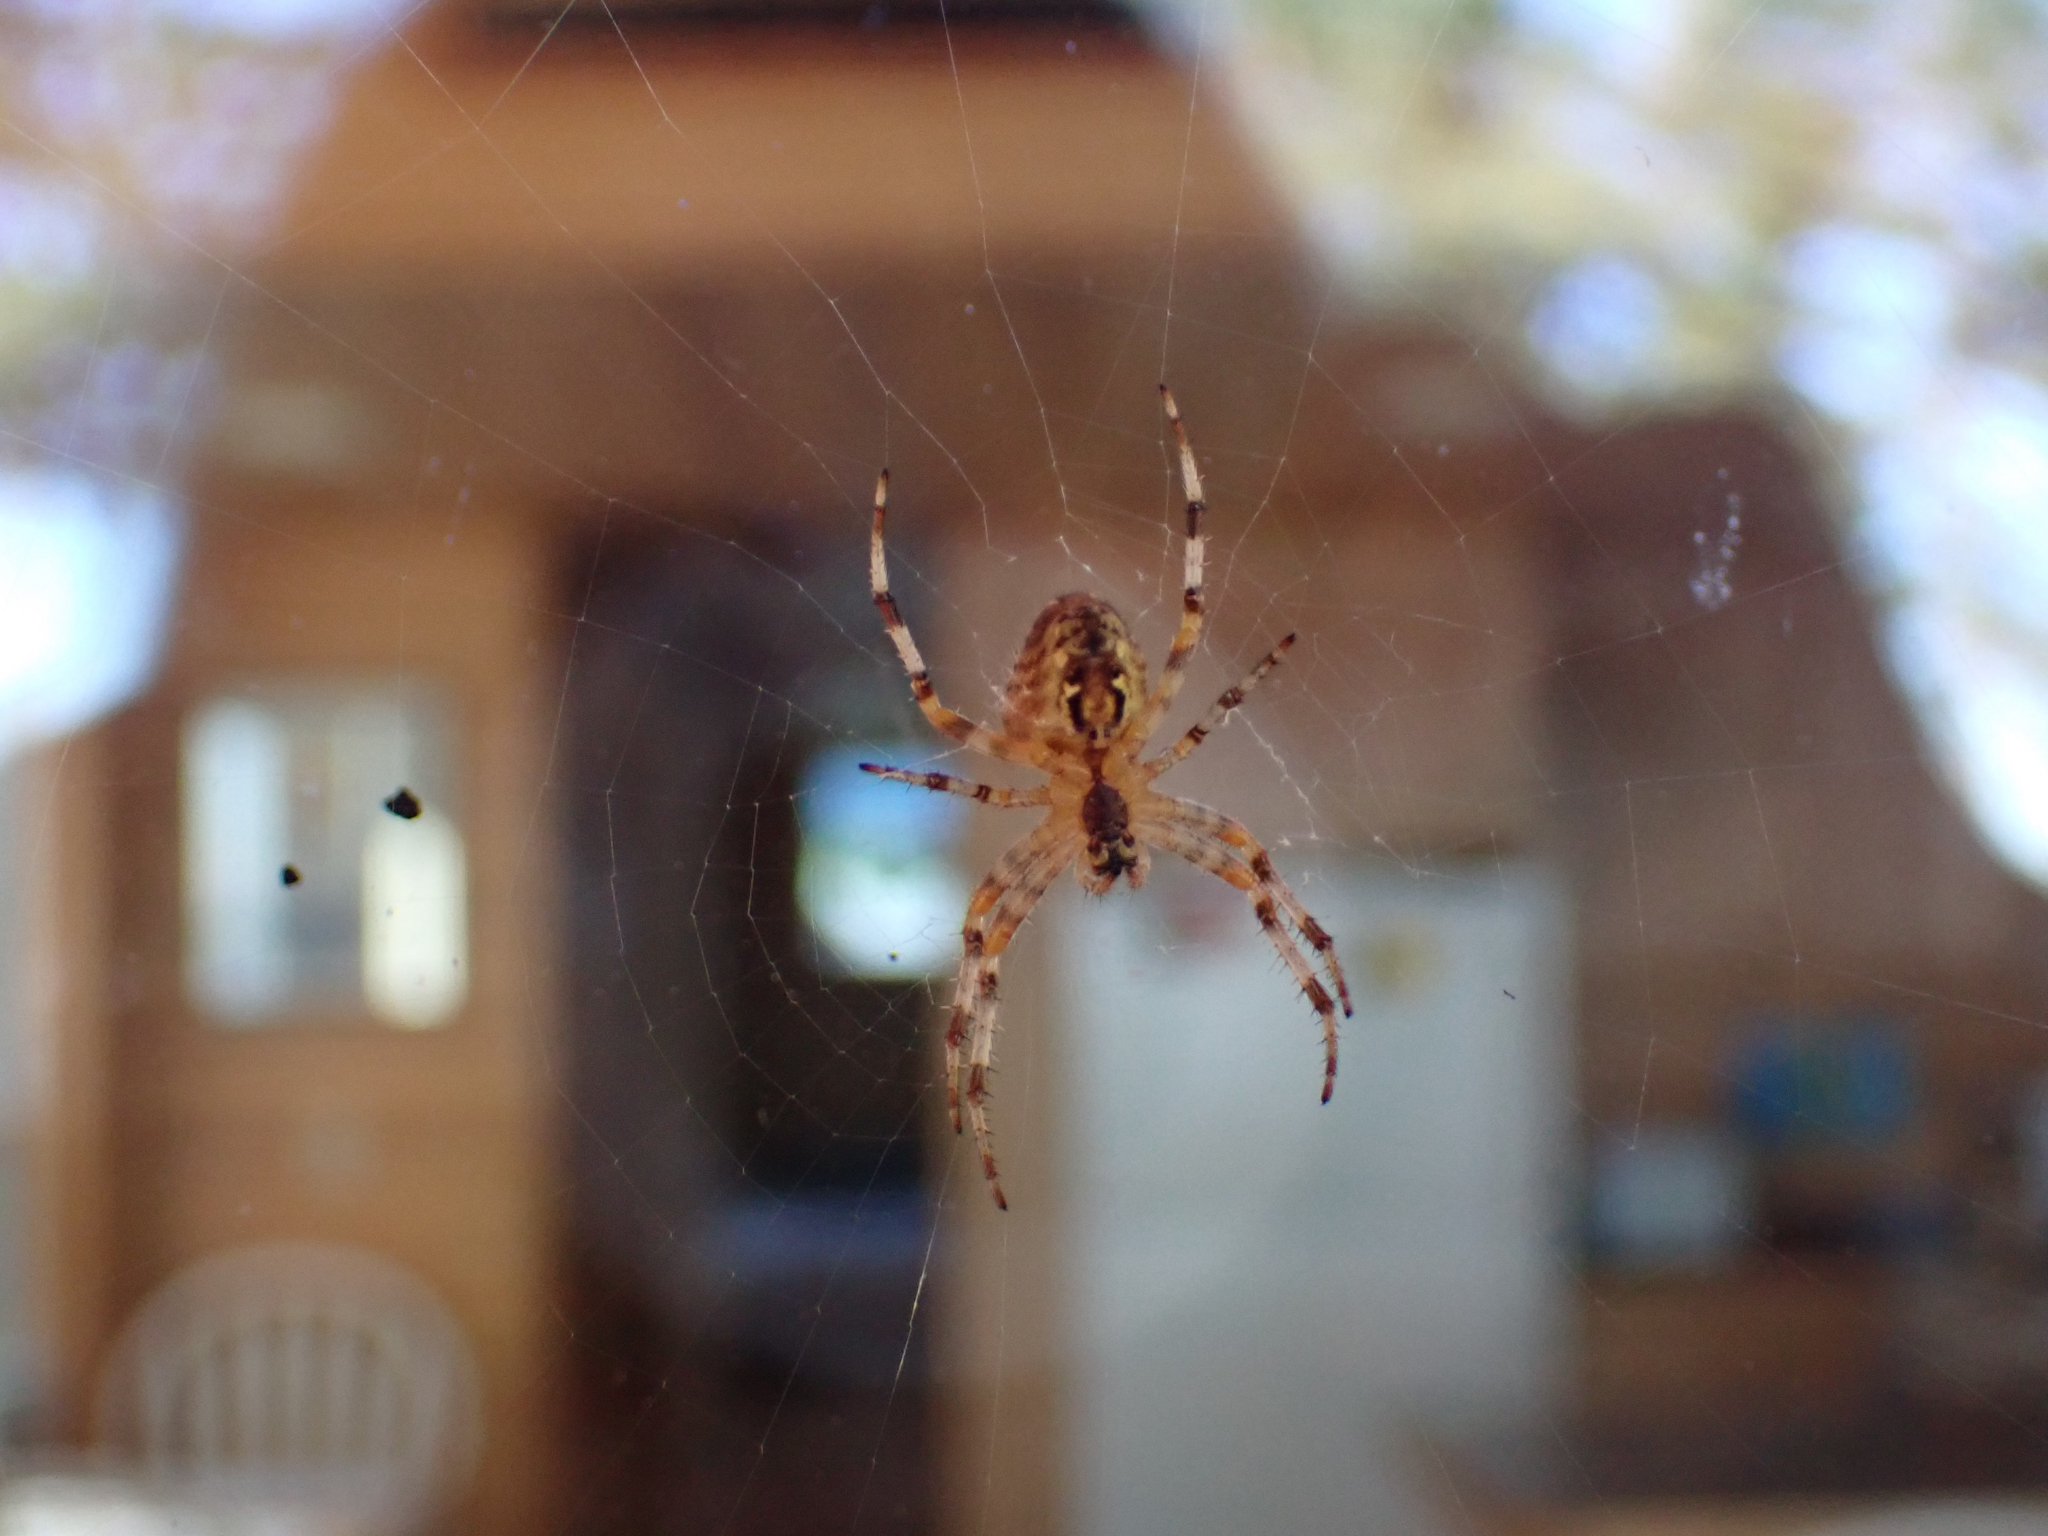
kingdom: Animalia
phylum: Arthropoda
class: Arachnida
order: Araneae
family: Araneidae
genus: Araneus
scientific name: Araneus diadematus
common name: Cross orbweaver
